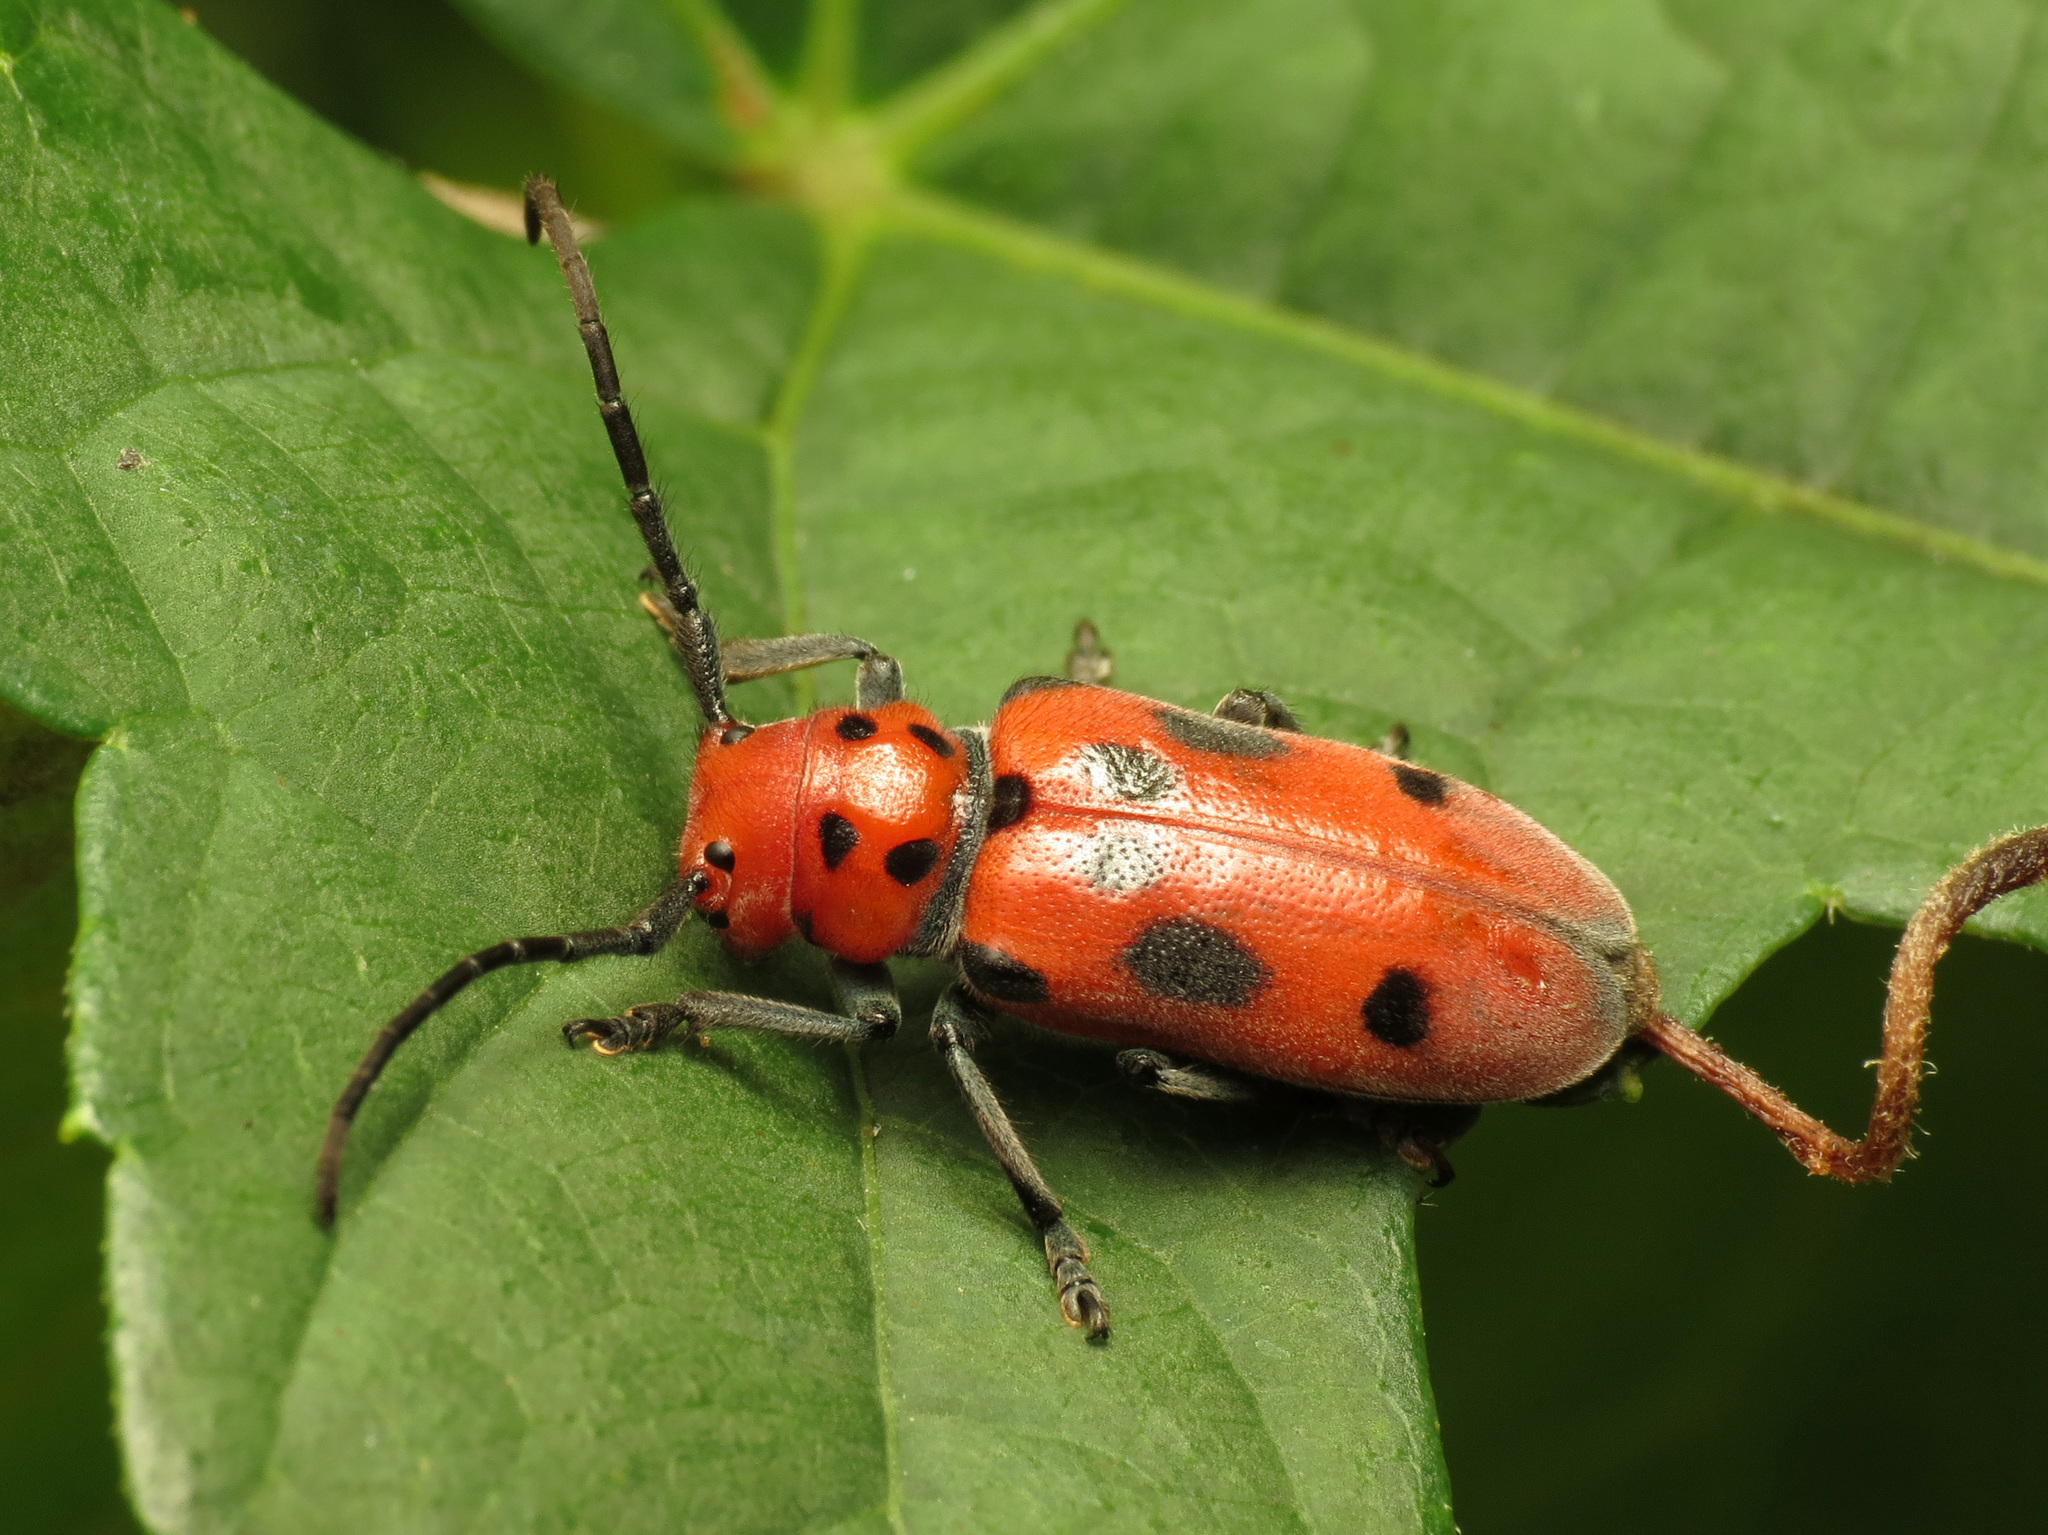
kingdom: Animalia
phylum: Arthropoda
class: Insecta
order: Coleoptera
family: Cerambycidae
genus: Tetraopes
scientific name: Tetraopes tetrophthalmus
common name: Red milkweed beetle
